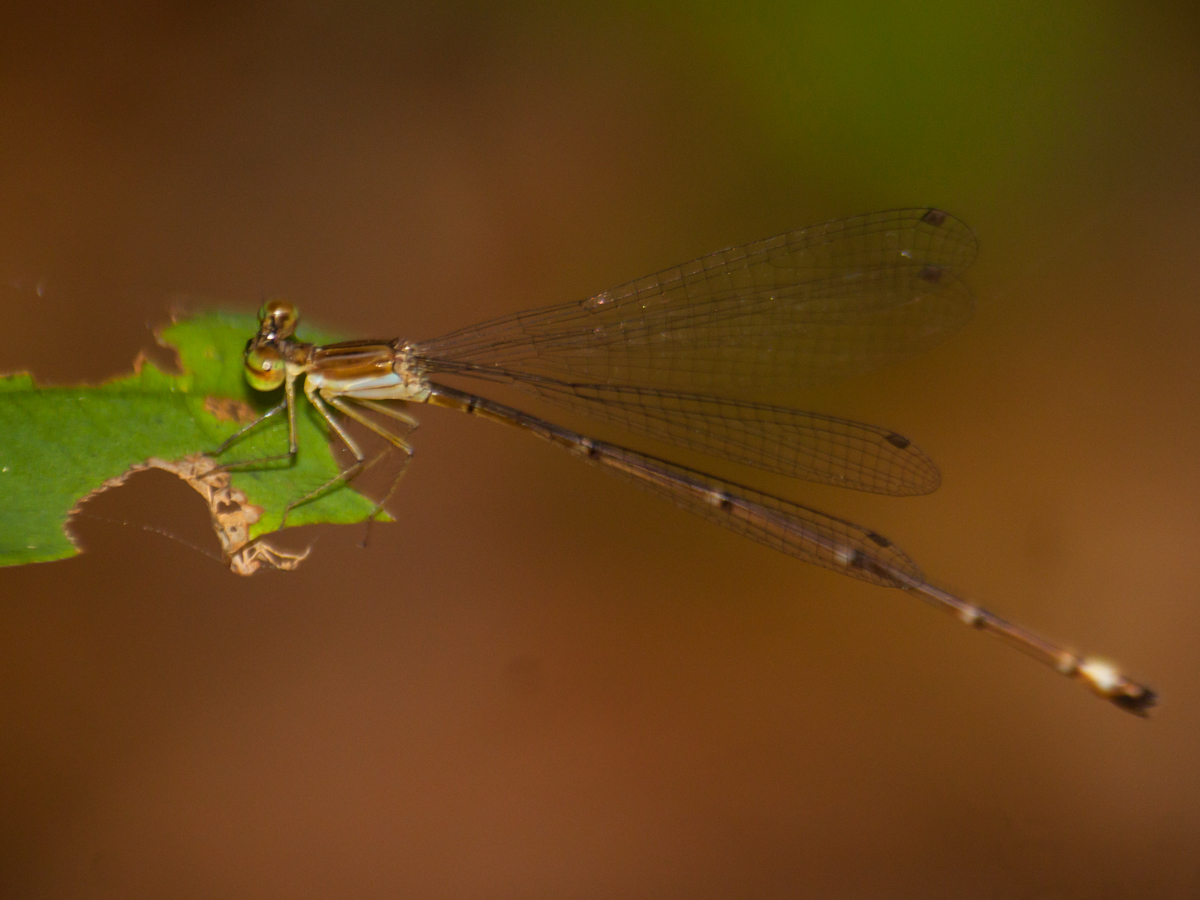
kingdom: Animalia
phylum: Arthropoda
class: Insecta
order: Odonata
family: Platycnemididae
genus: Coeliccia
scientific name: Coeliccia kazukoae
